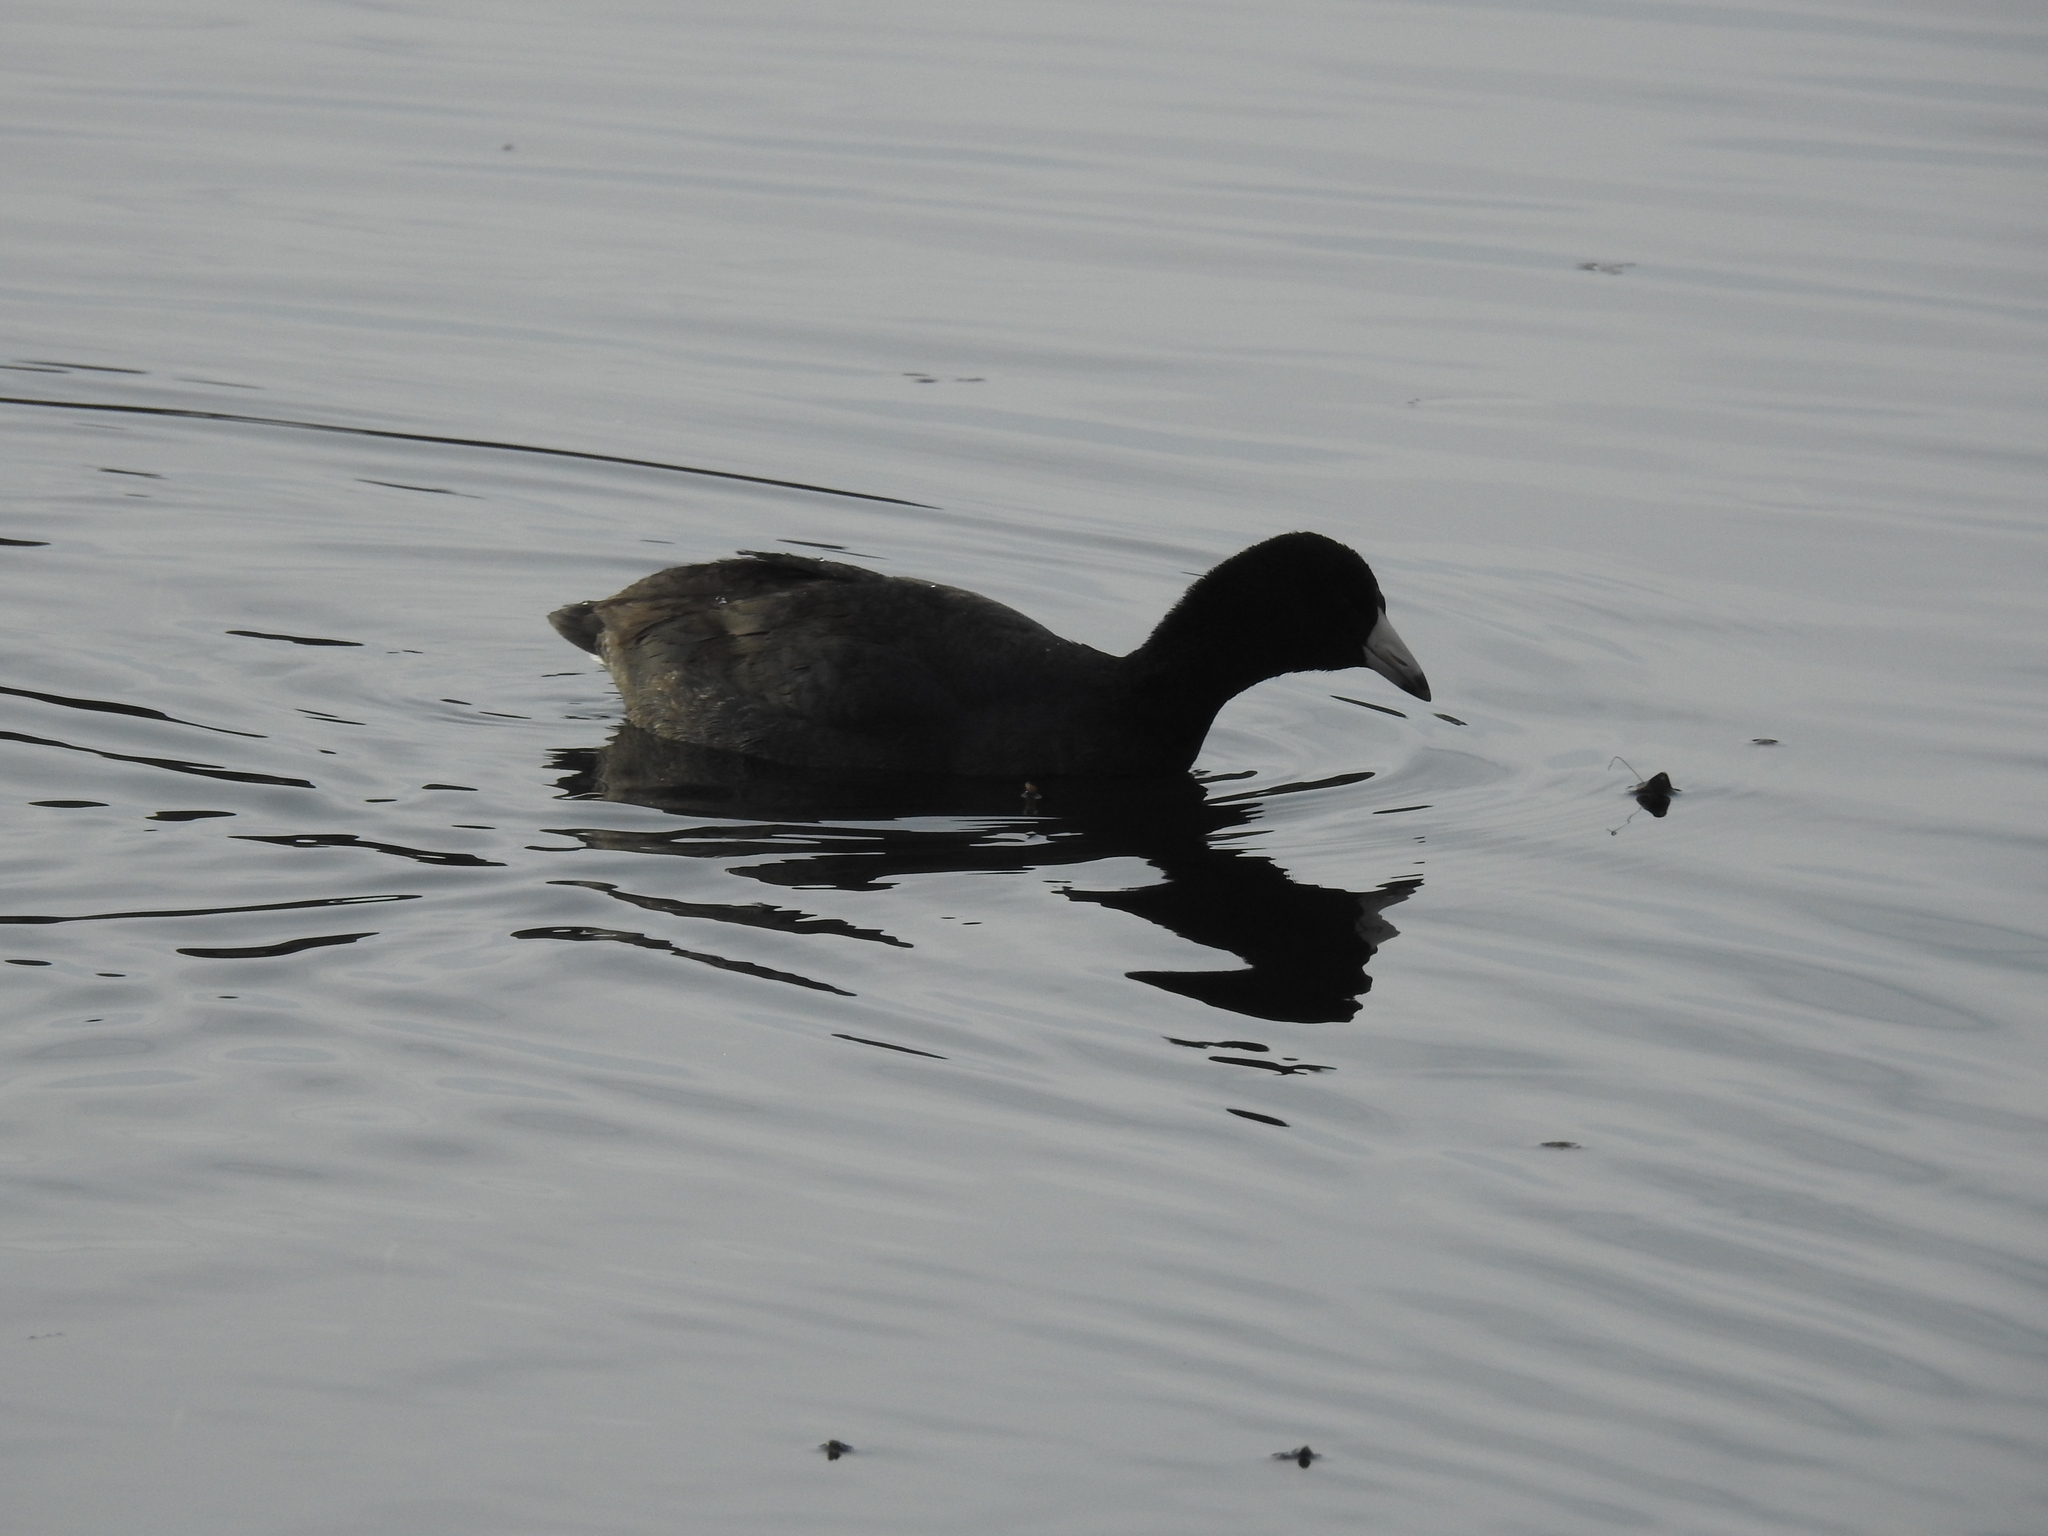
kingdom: Animalia
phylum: Chordata
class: Aves
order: Gruiformes
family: Rallidae
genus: Fulica
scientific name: Fulica americana
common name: American coot
